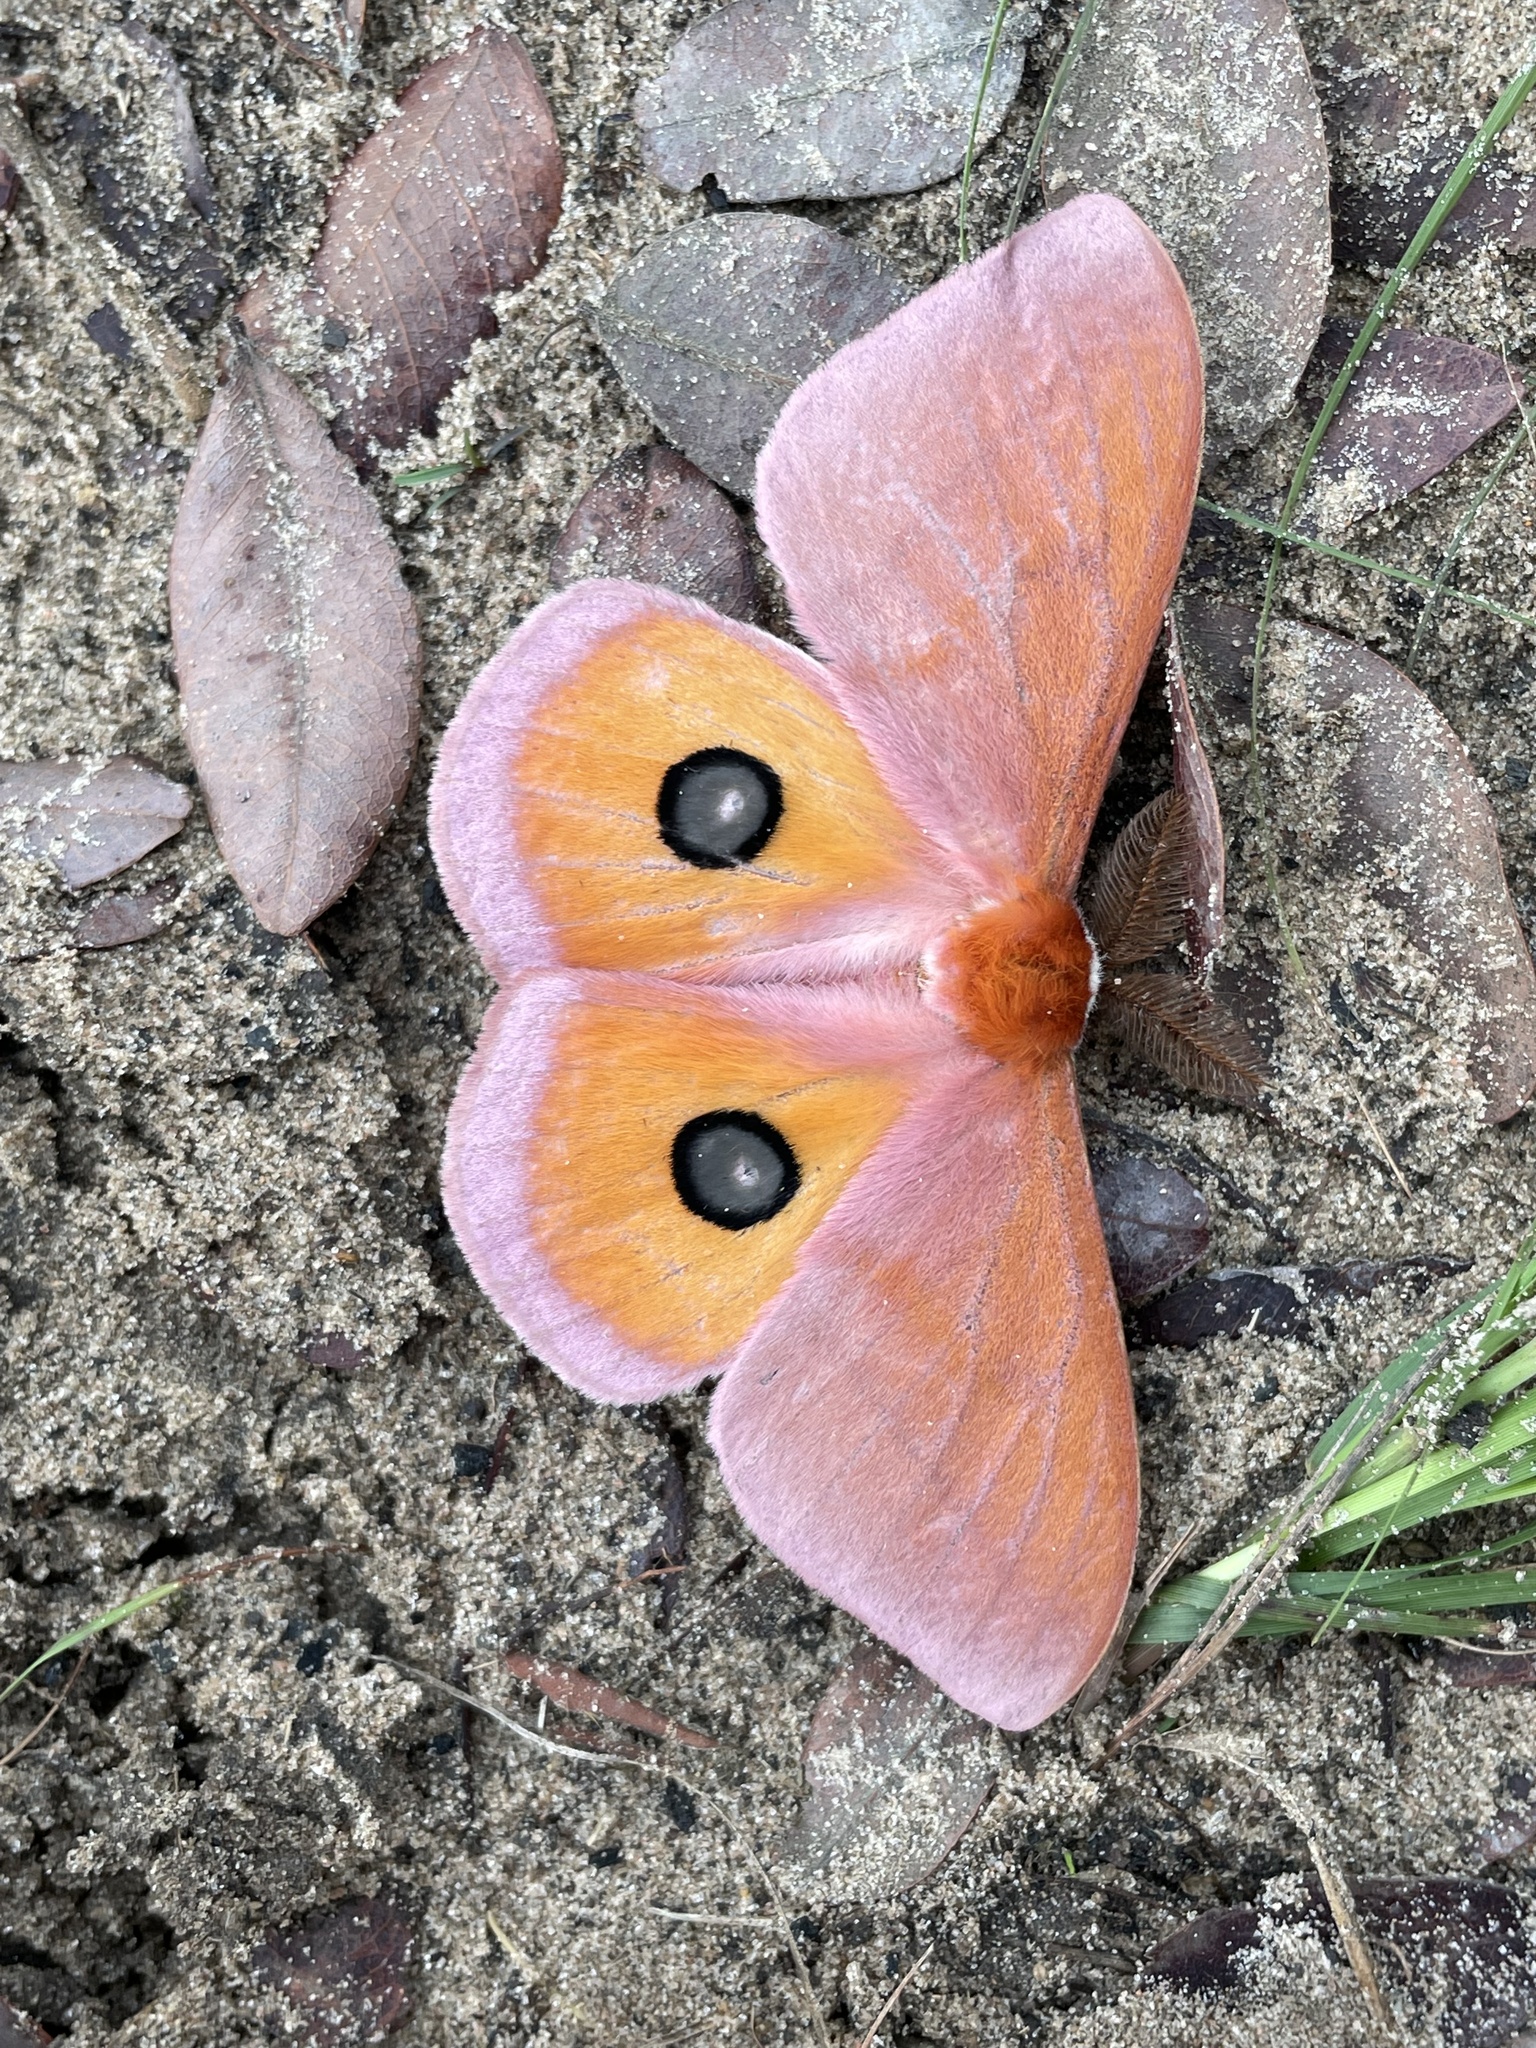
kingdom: Animalia
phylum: Arthropoda
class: Insecta
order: Lepidoptera
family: Saturniidae
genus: Rohaniella
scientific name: Rohaniella pygmaea
